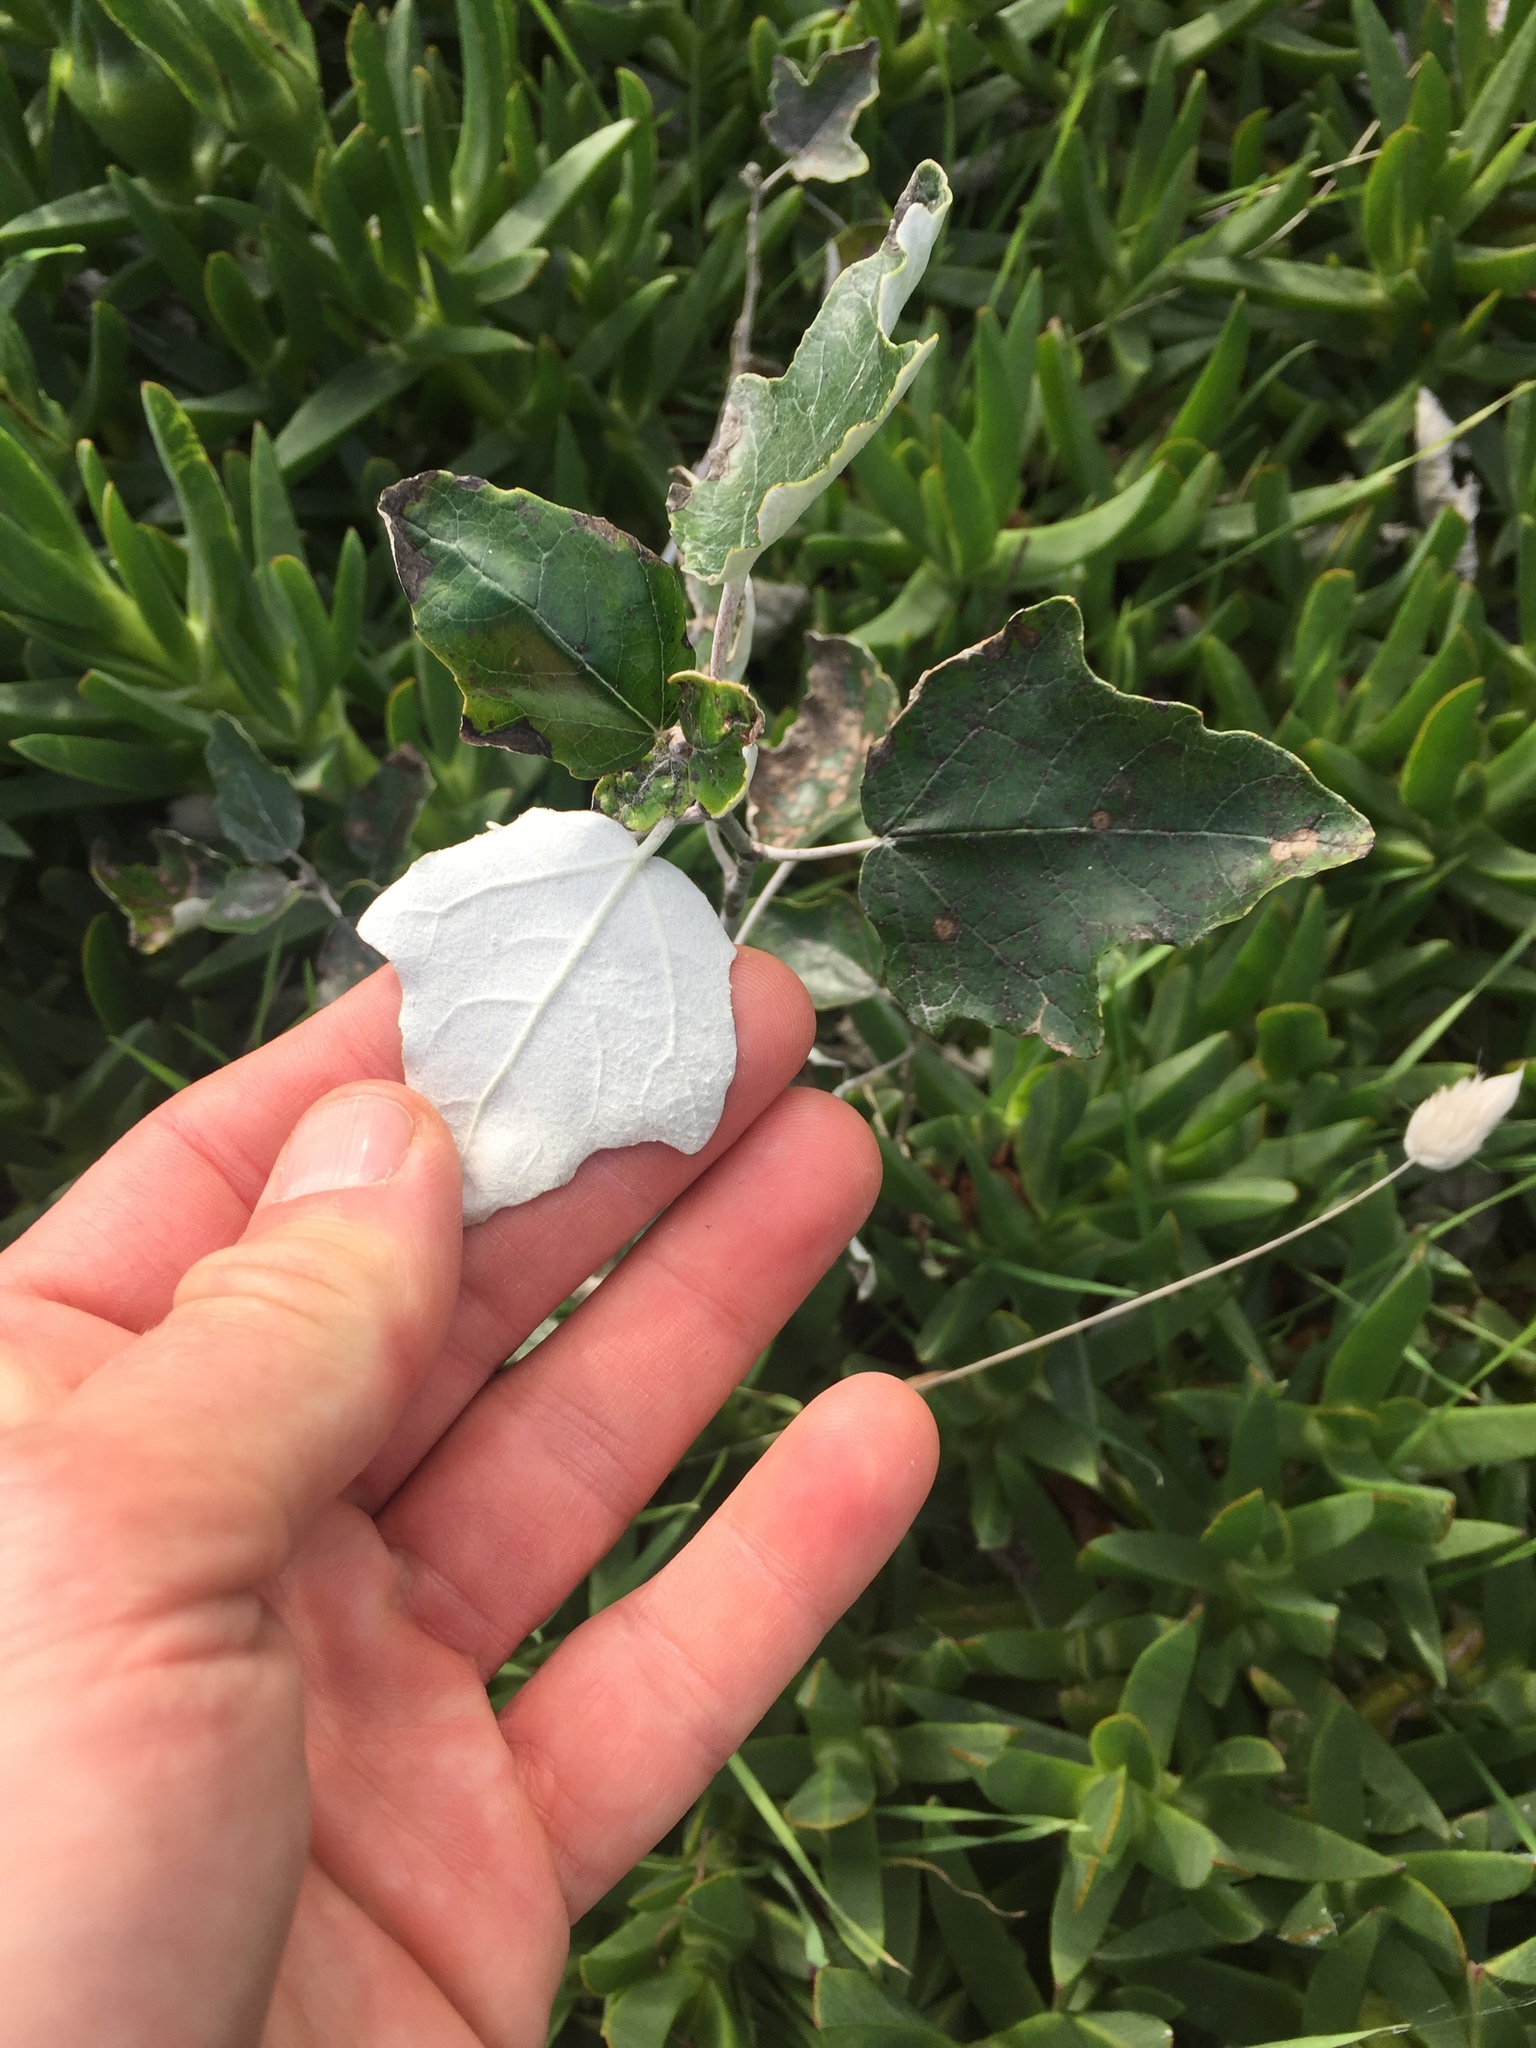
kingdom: Plantae
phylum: Tracheophyta
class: Magnoliopsida
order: Malpighiales
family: Salicaceae
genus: Populus
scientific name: Populus alba
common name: White poplar
